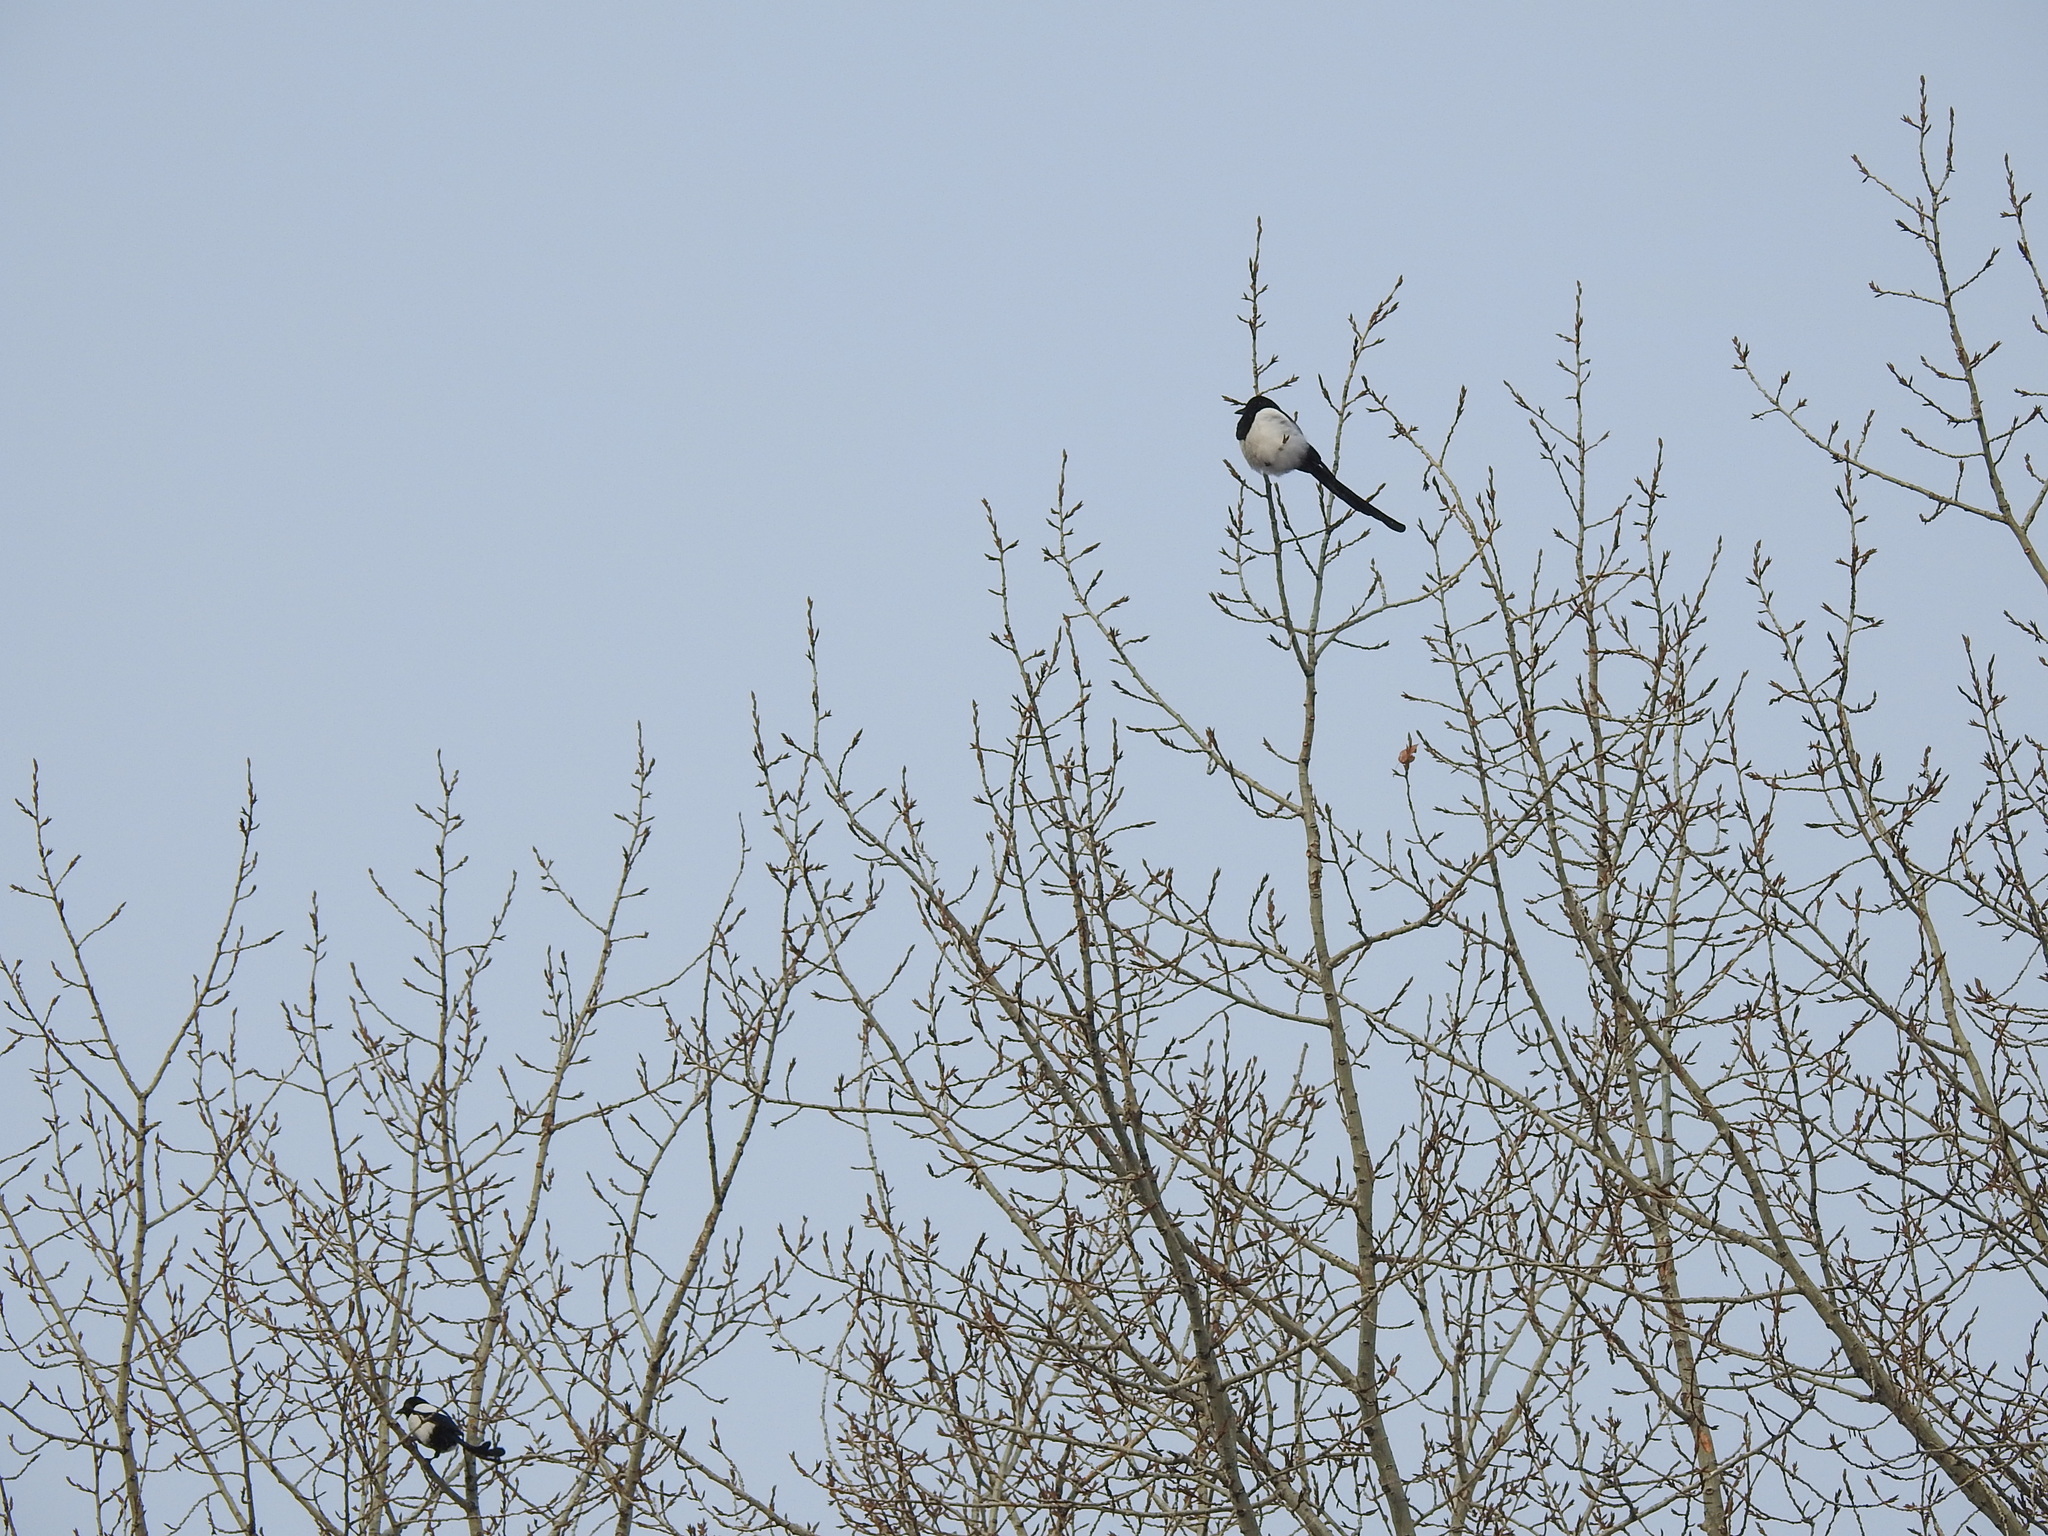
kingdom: Animalia
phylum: Chordata
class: Aves
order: Passeriformes
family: Corvidae
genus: Pica
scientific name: Pica pica
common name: Eurasian magpie
